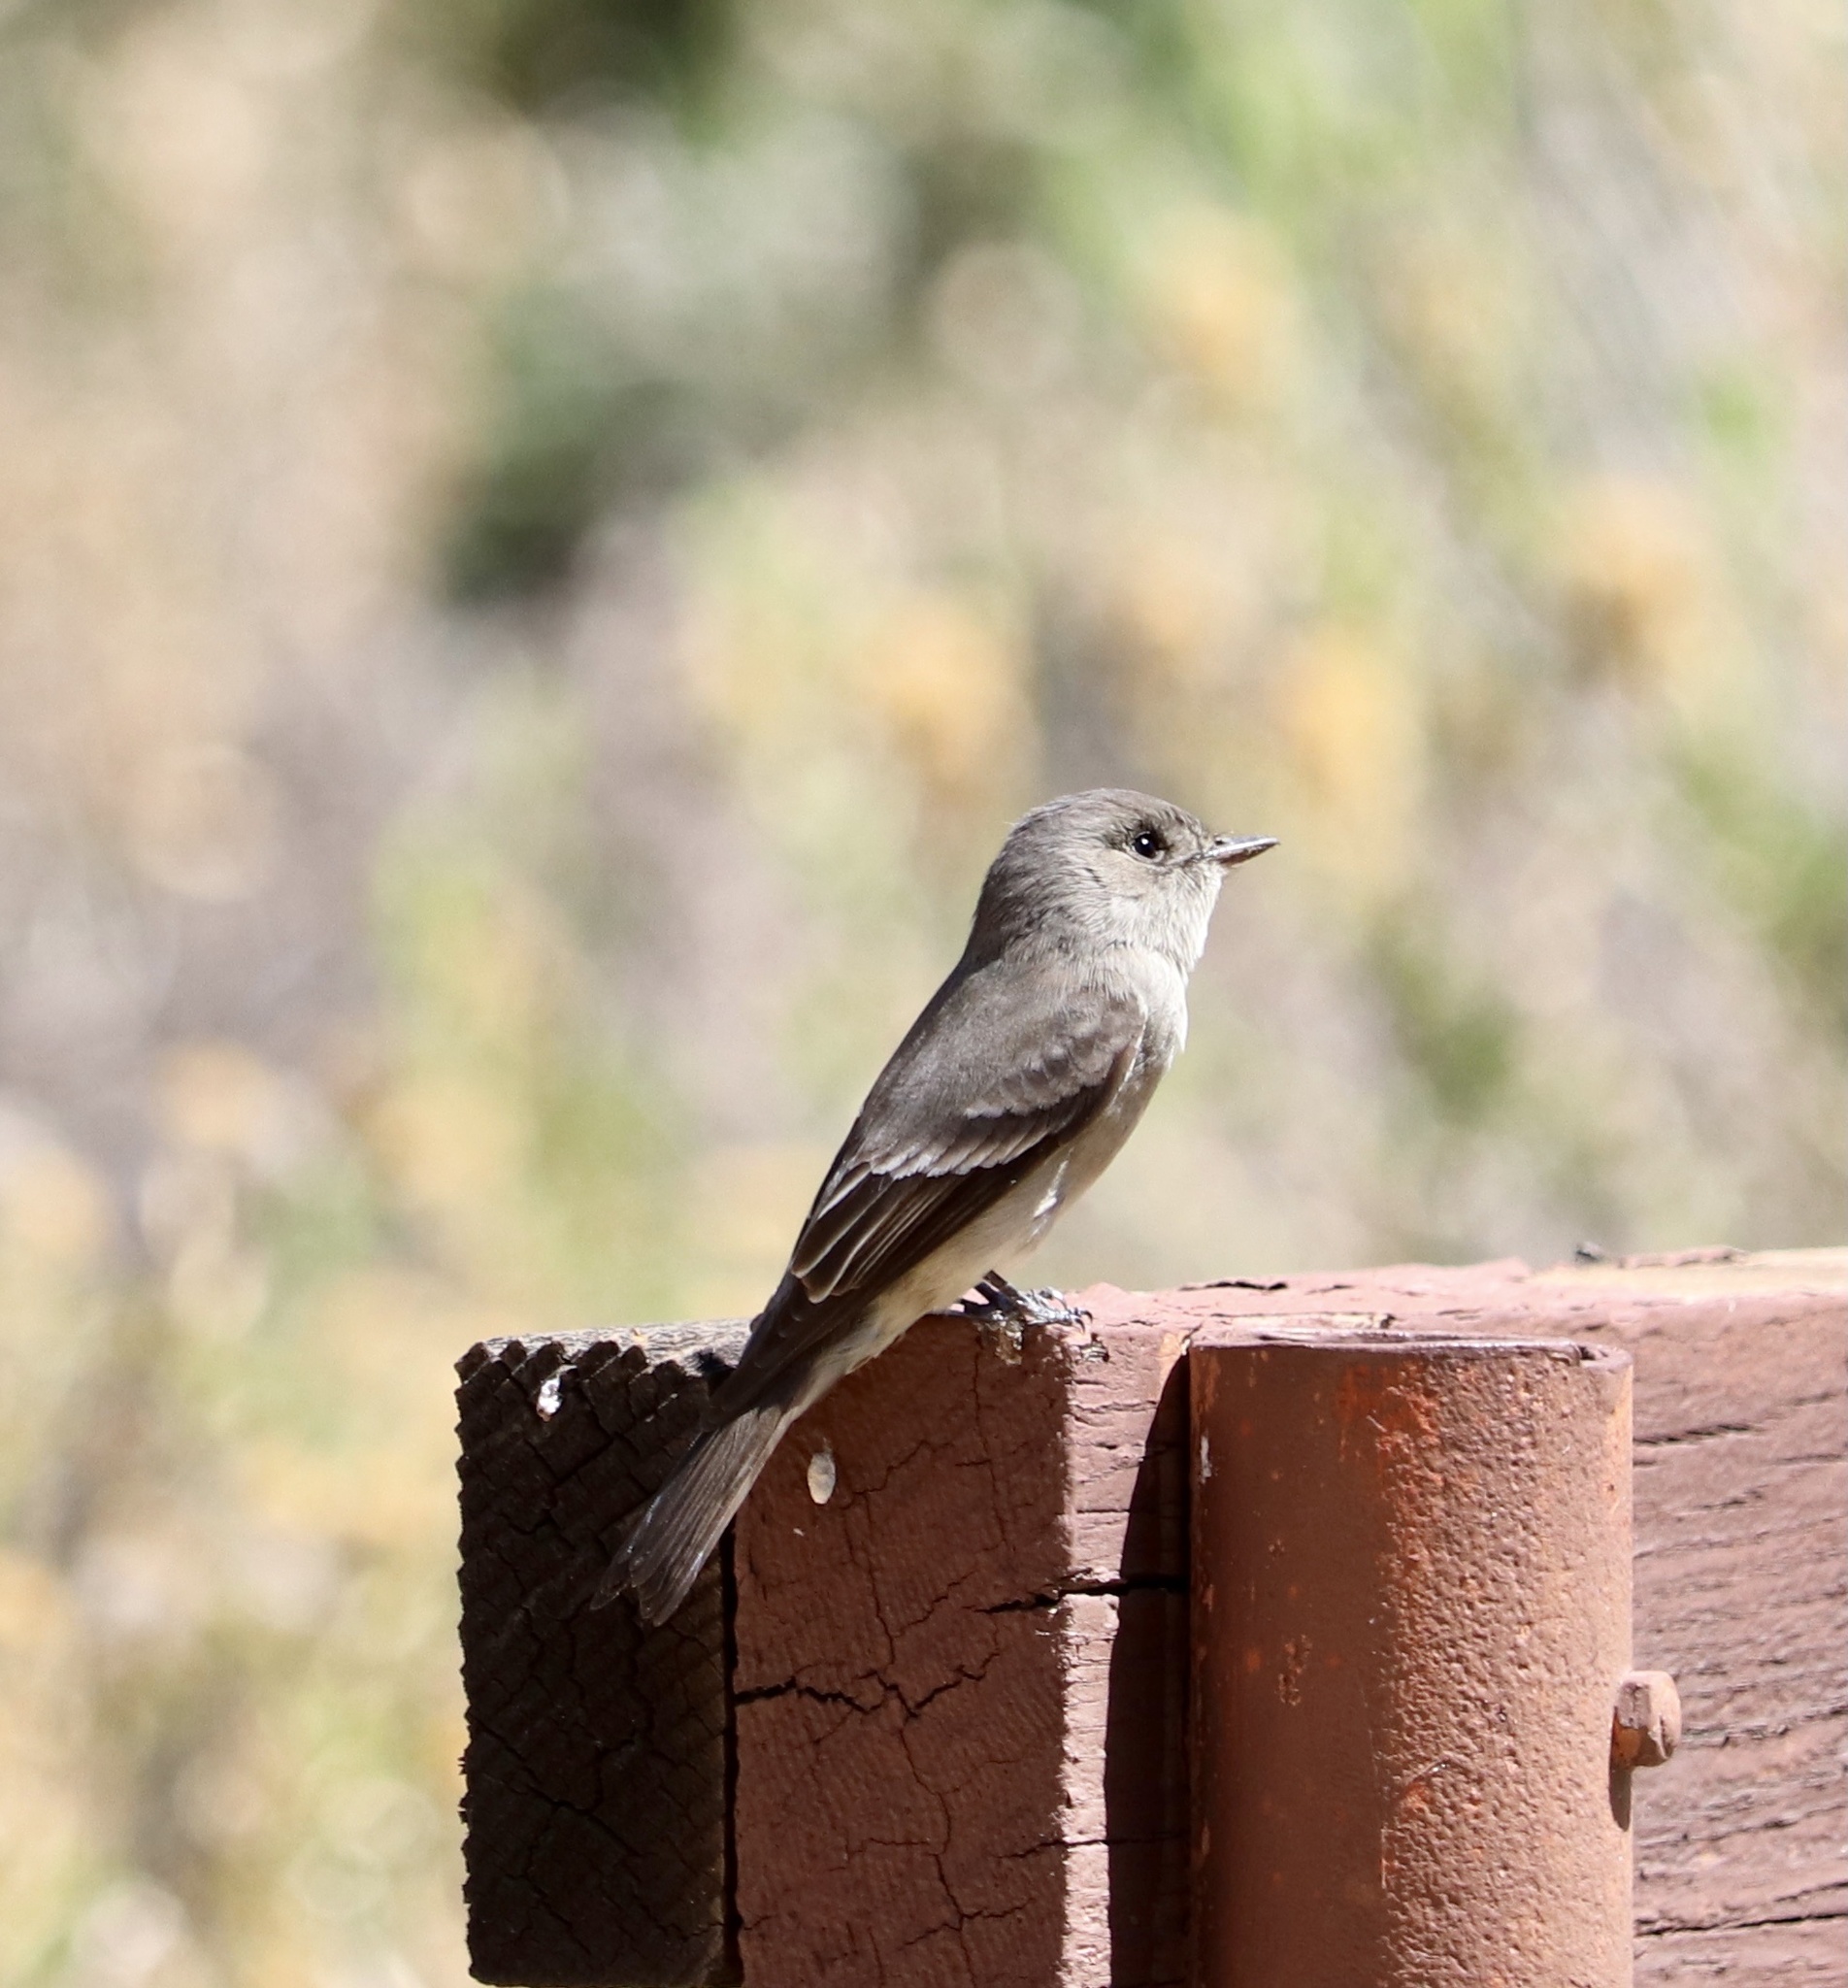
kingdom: Animalia
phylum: Chordata
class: Aves
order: Passeriformes
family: Tyrannidae
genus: Contopus
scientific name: Contopus sordidulus
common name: Western wood-pewee
